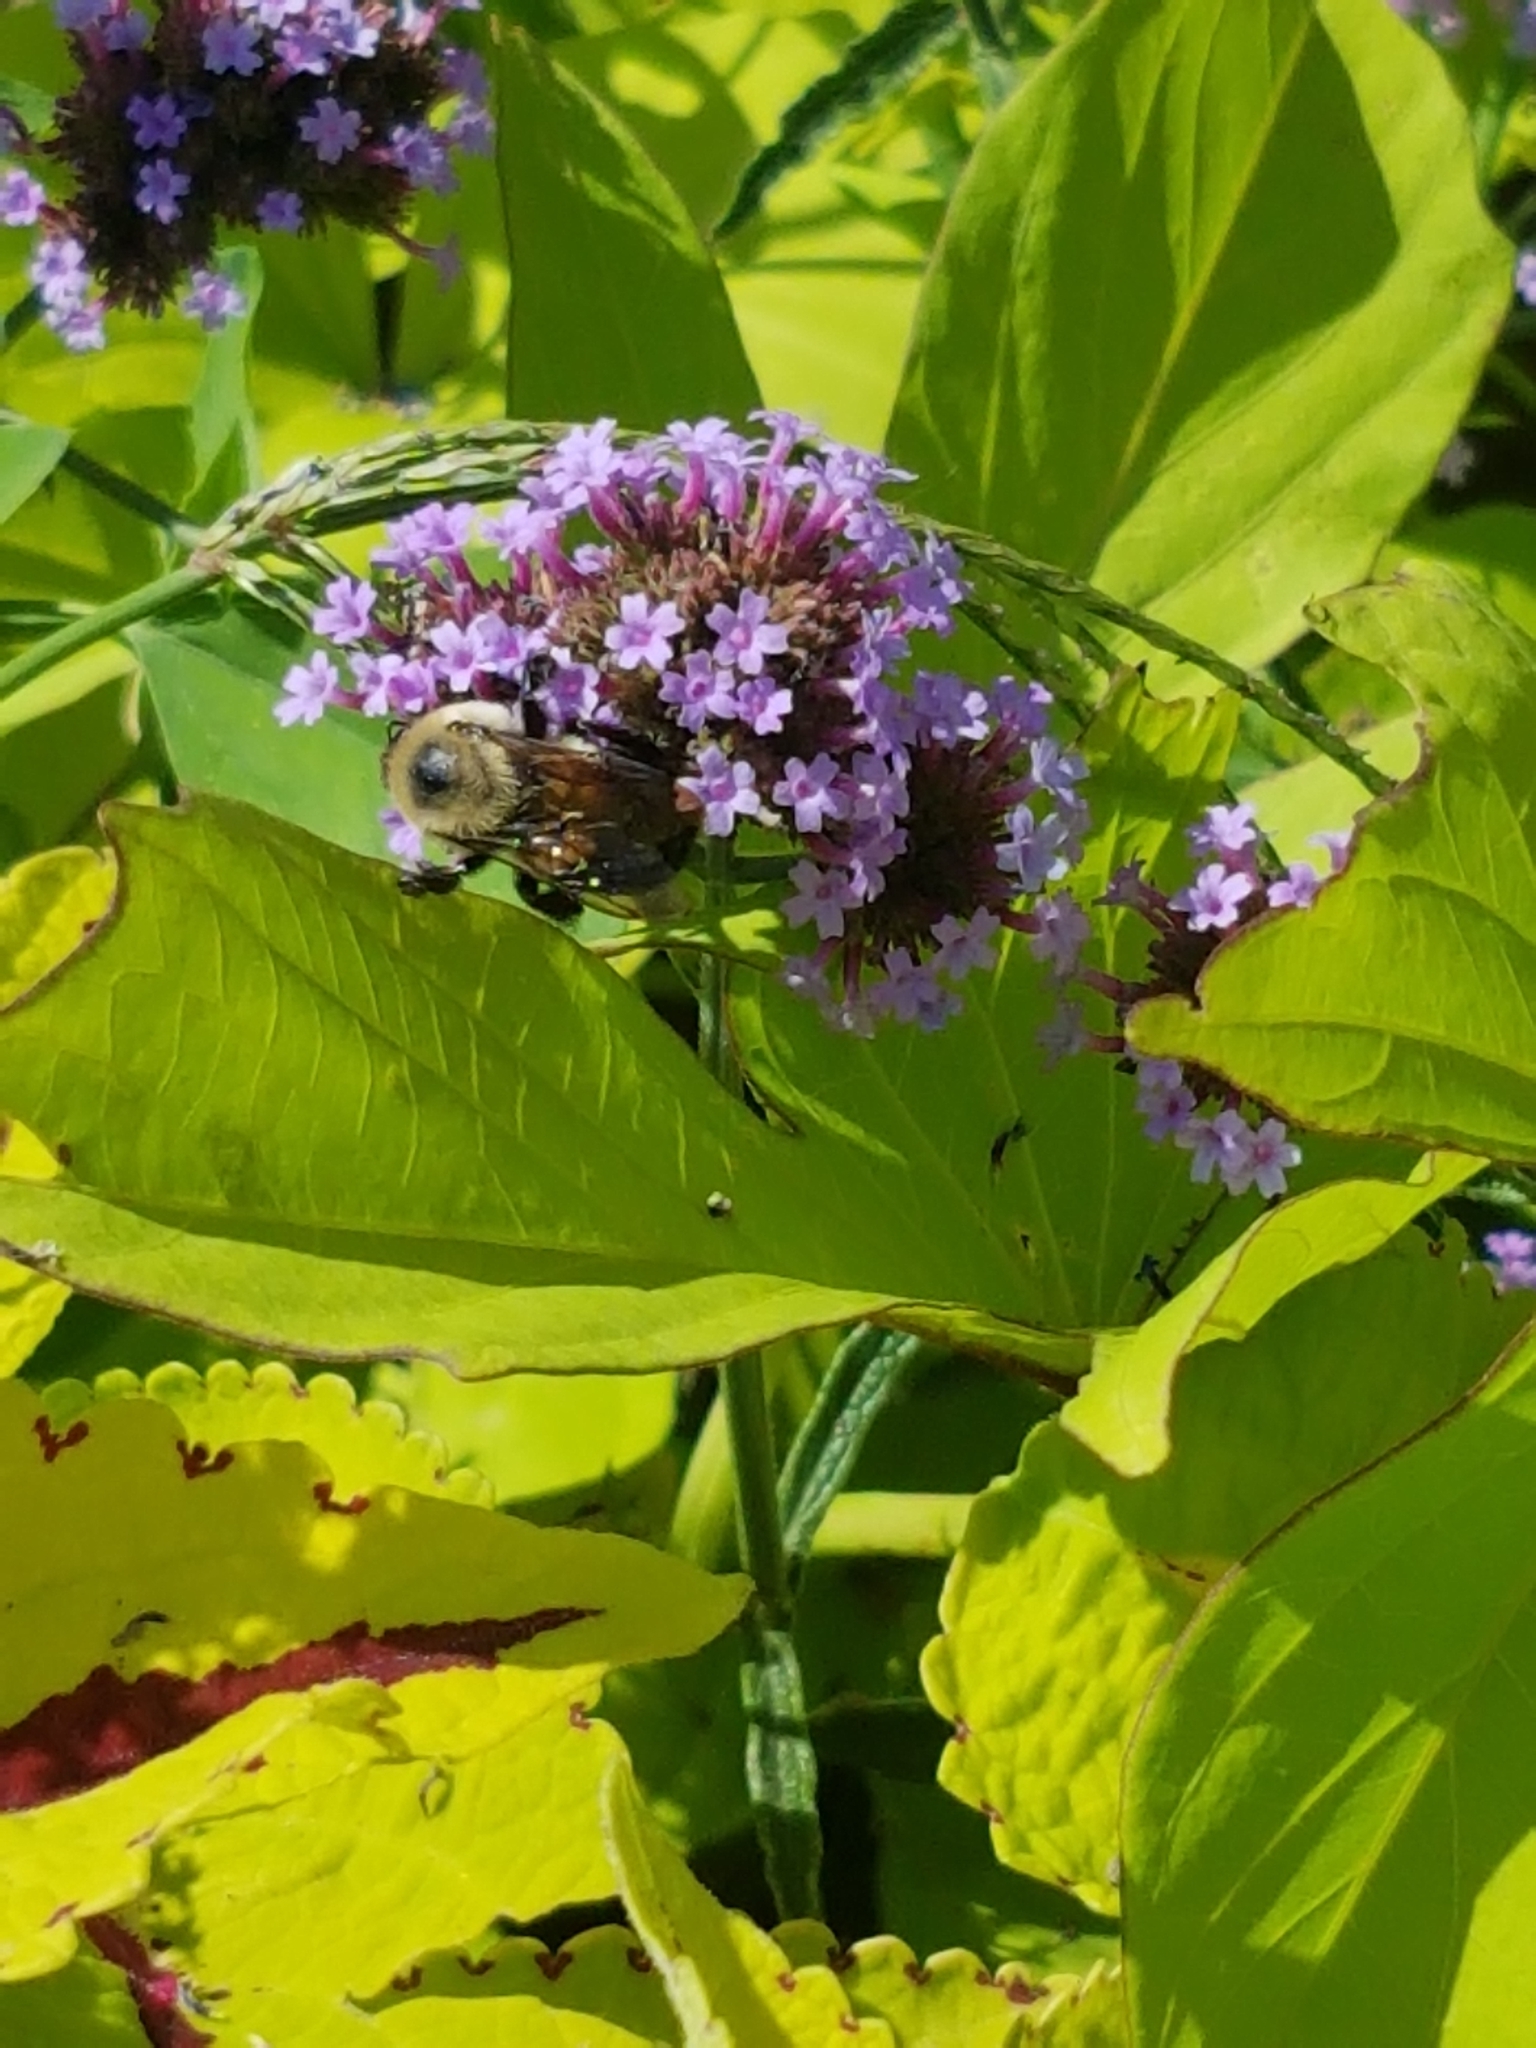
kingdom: Animalia
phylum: Arthropoda
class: Insecta
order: Hymenoptera
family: Apidae
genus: Bombus
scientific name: Bombus griseocollis
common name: Brown-belted bumble bee
